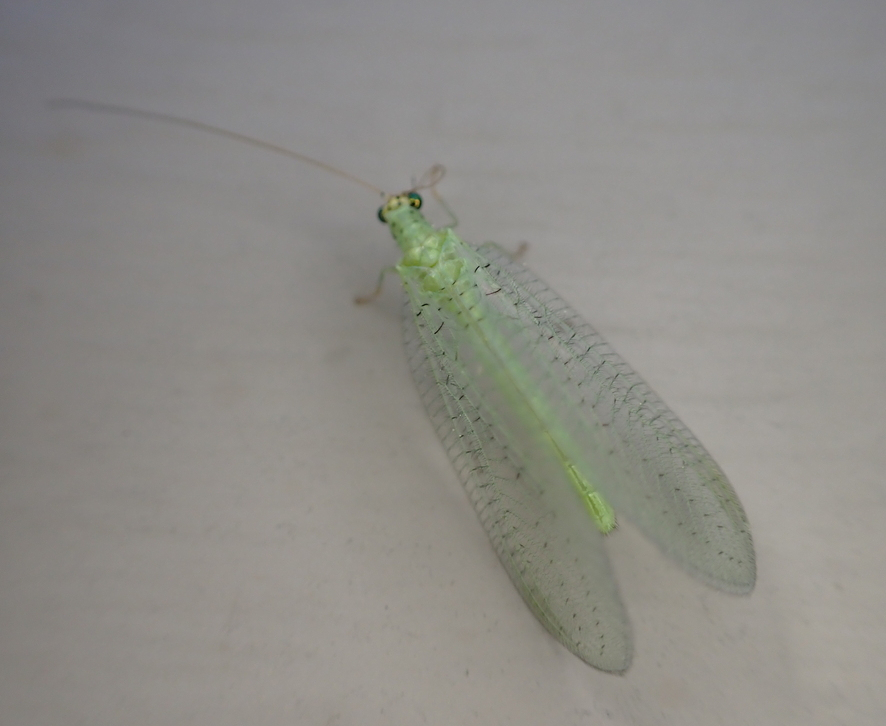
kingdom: Animalia
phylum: Arthropoda
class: Insecta
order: Neuroptera
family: Chrysopidae
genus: Chrysopa
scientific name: Chrysopa oculata
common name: Golden-eyed lacewing
